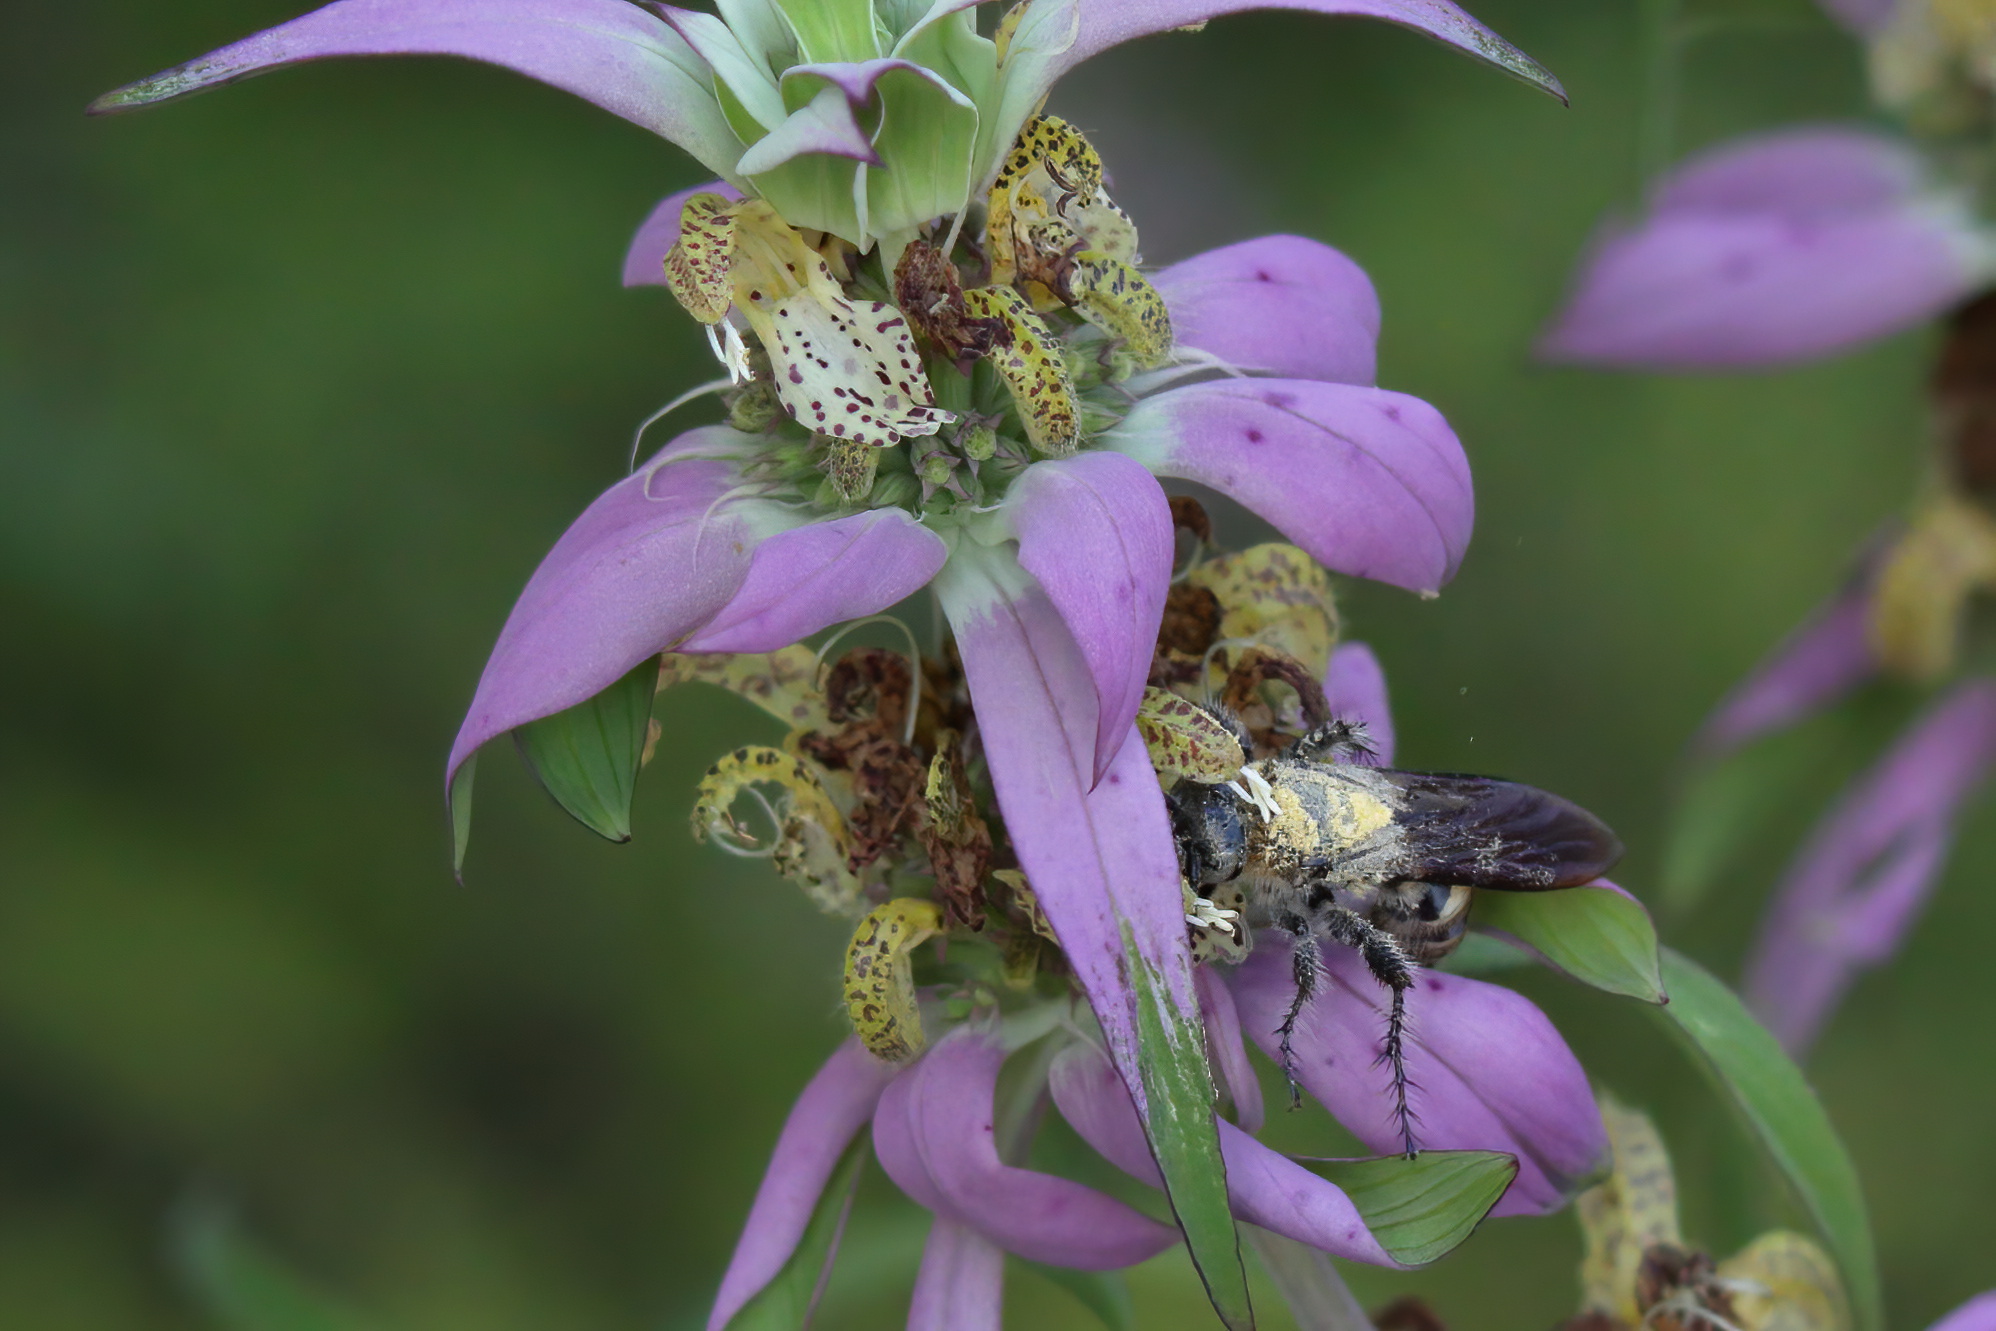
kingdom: Animalia
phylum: Arthropoda
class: Insecta
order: Hymenoptera
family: Scoliidae
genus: Dielis
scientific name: Dielis
